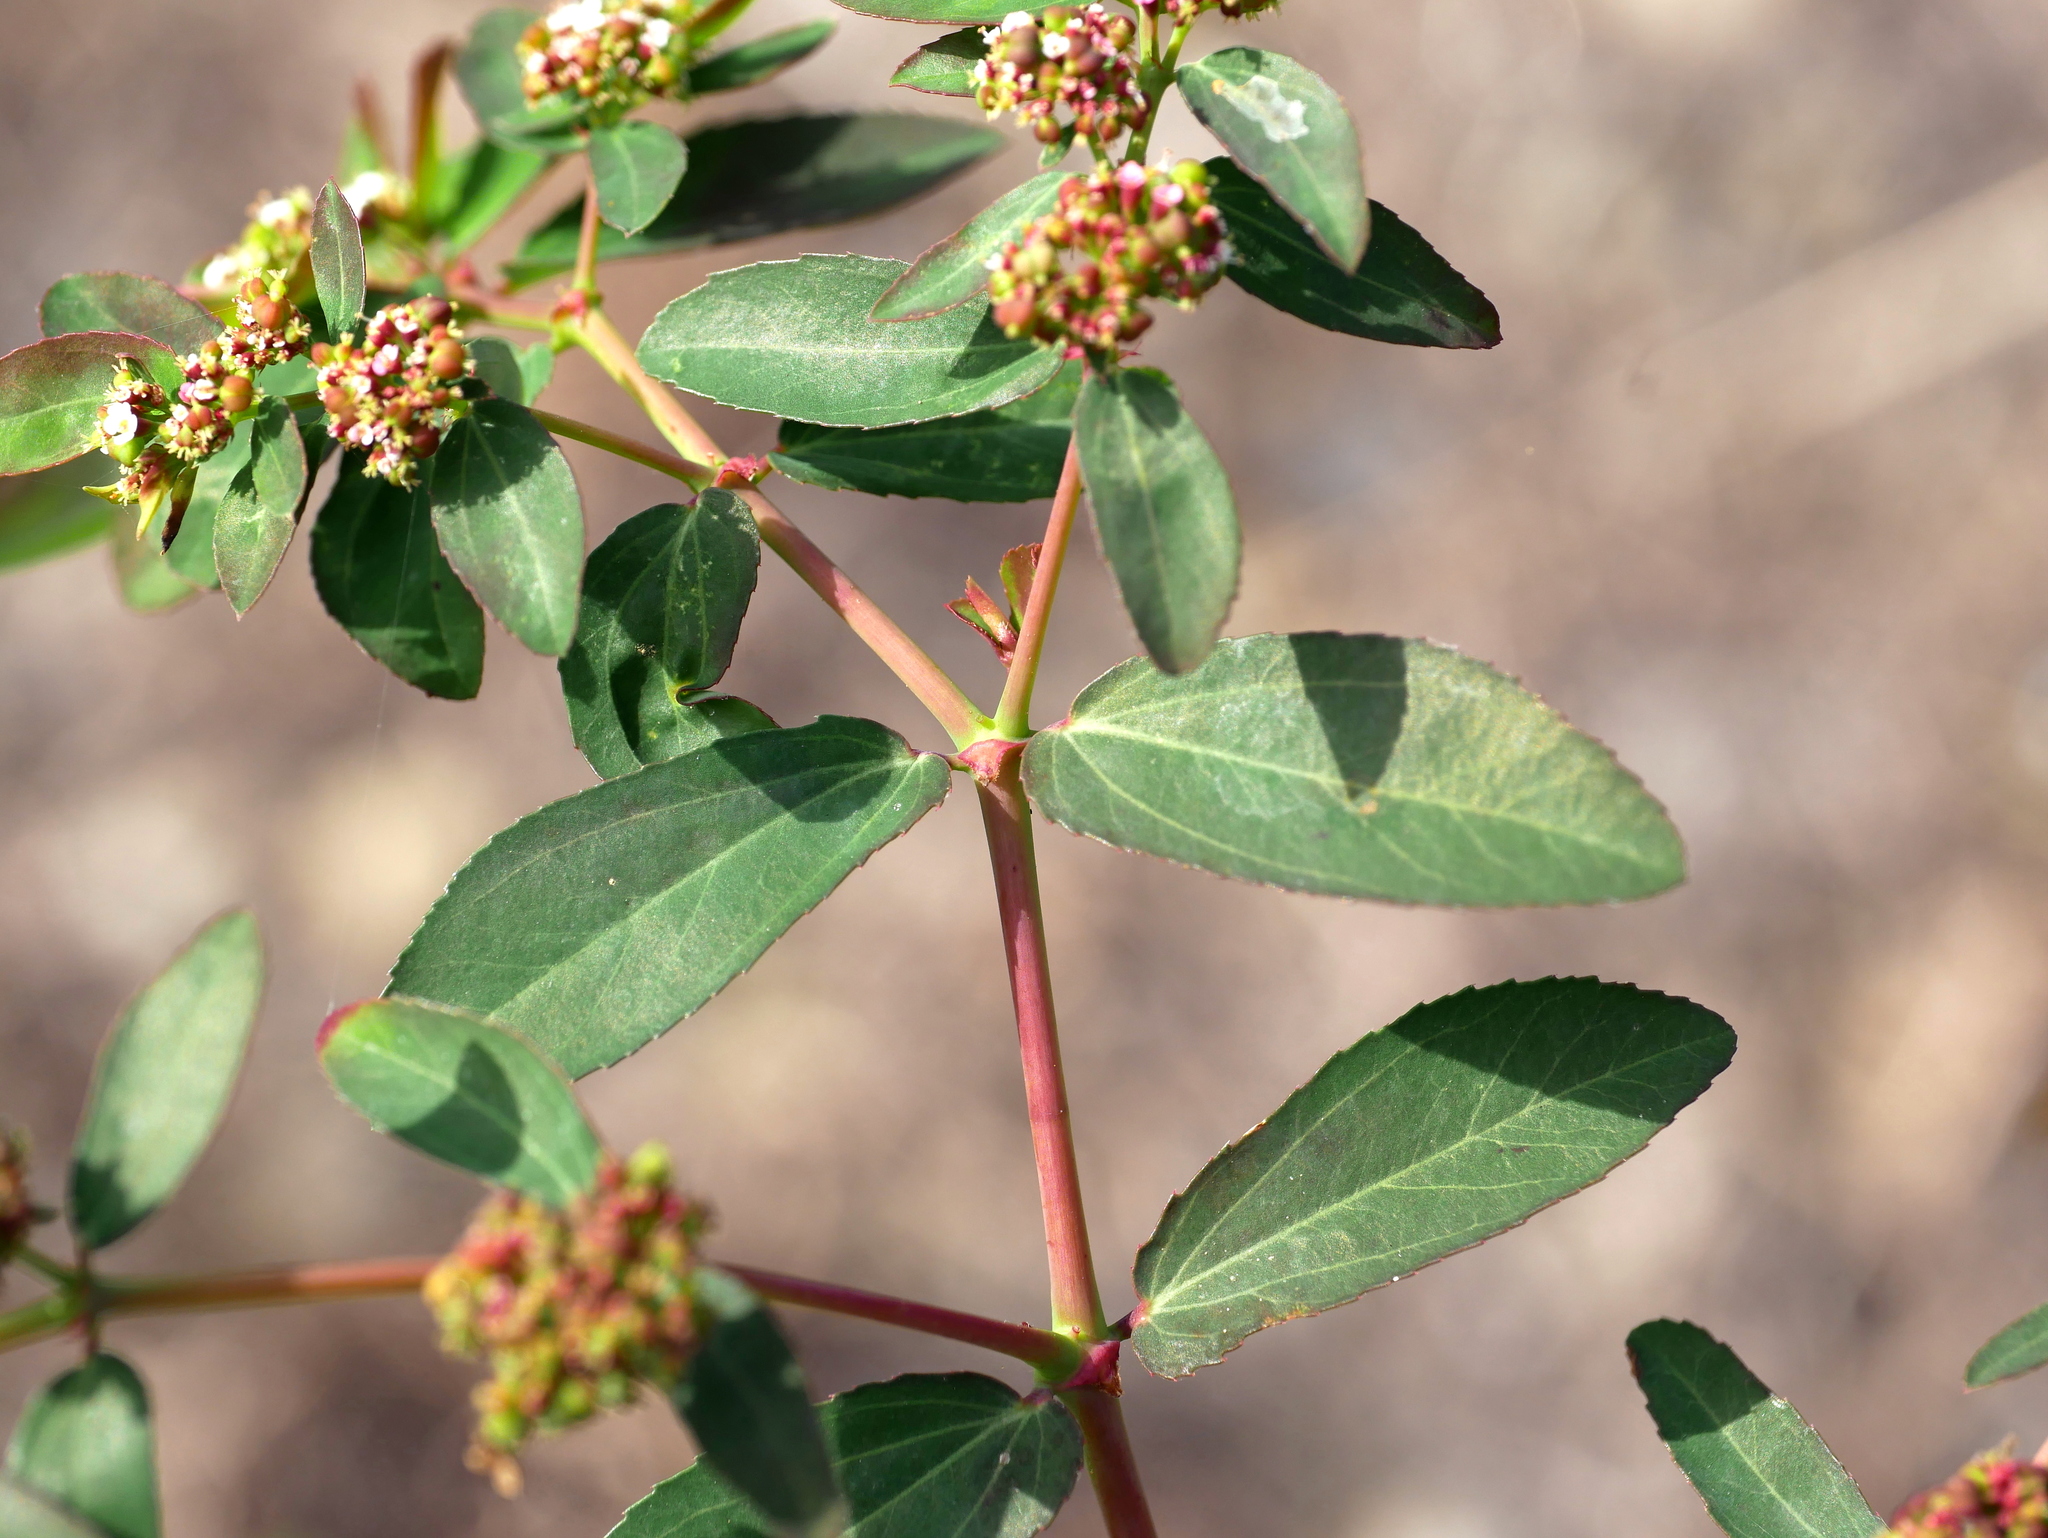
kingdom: Plantae
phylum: Tracheophyta
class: Magnoliopsida
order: Malpighiales
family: Euphorbiaceae
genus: Euphorbia
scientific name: Euphorbia hypericifolia
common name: Graceful sandmat
